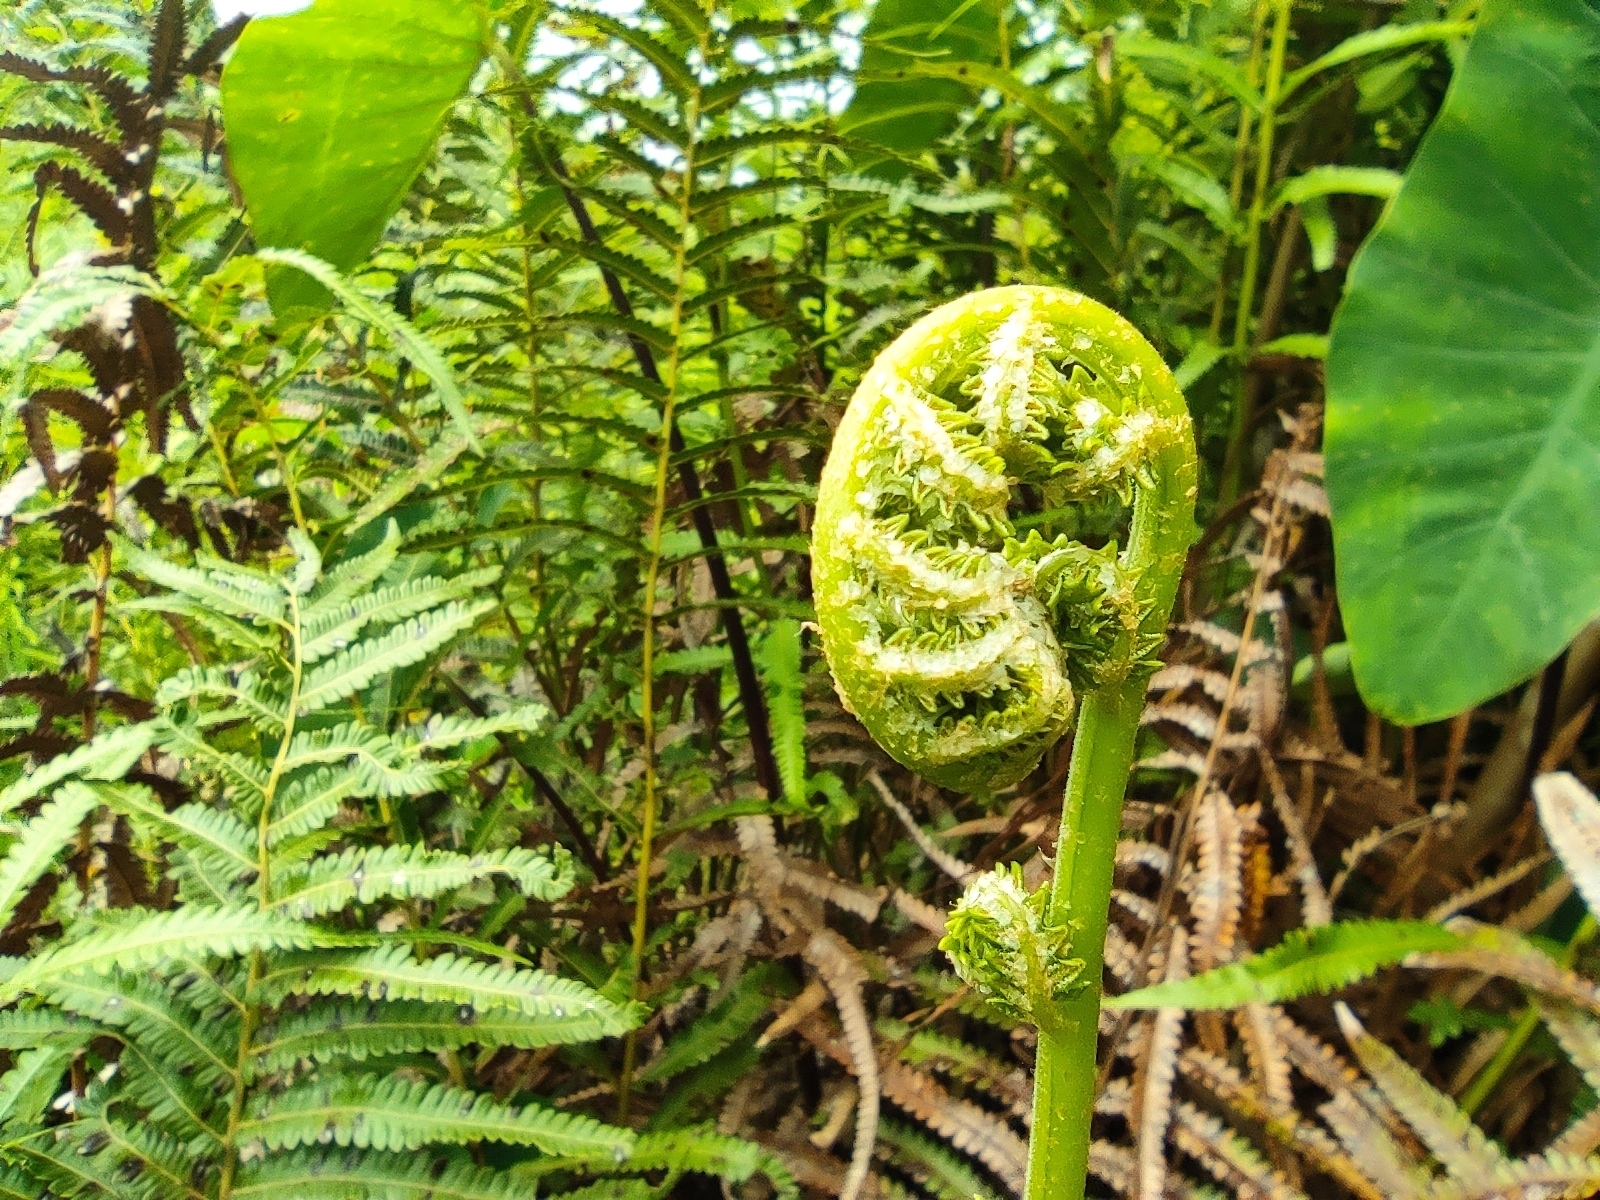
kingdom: Plantae
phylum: Tracheophyta
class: Polypodiopsida
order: Polypodiales
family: Thelypteridaceae
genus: Cyclosorus
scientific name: Cyclosorus interruptus
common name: Neke fern
